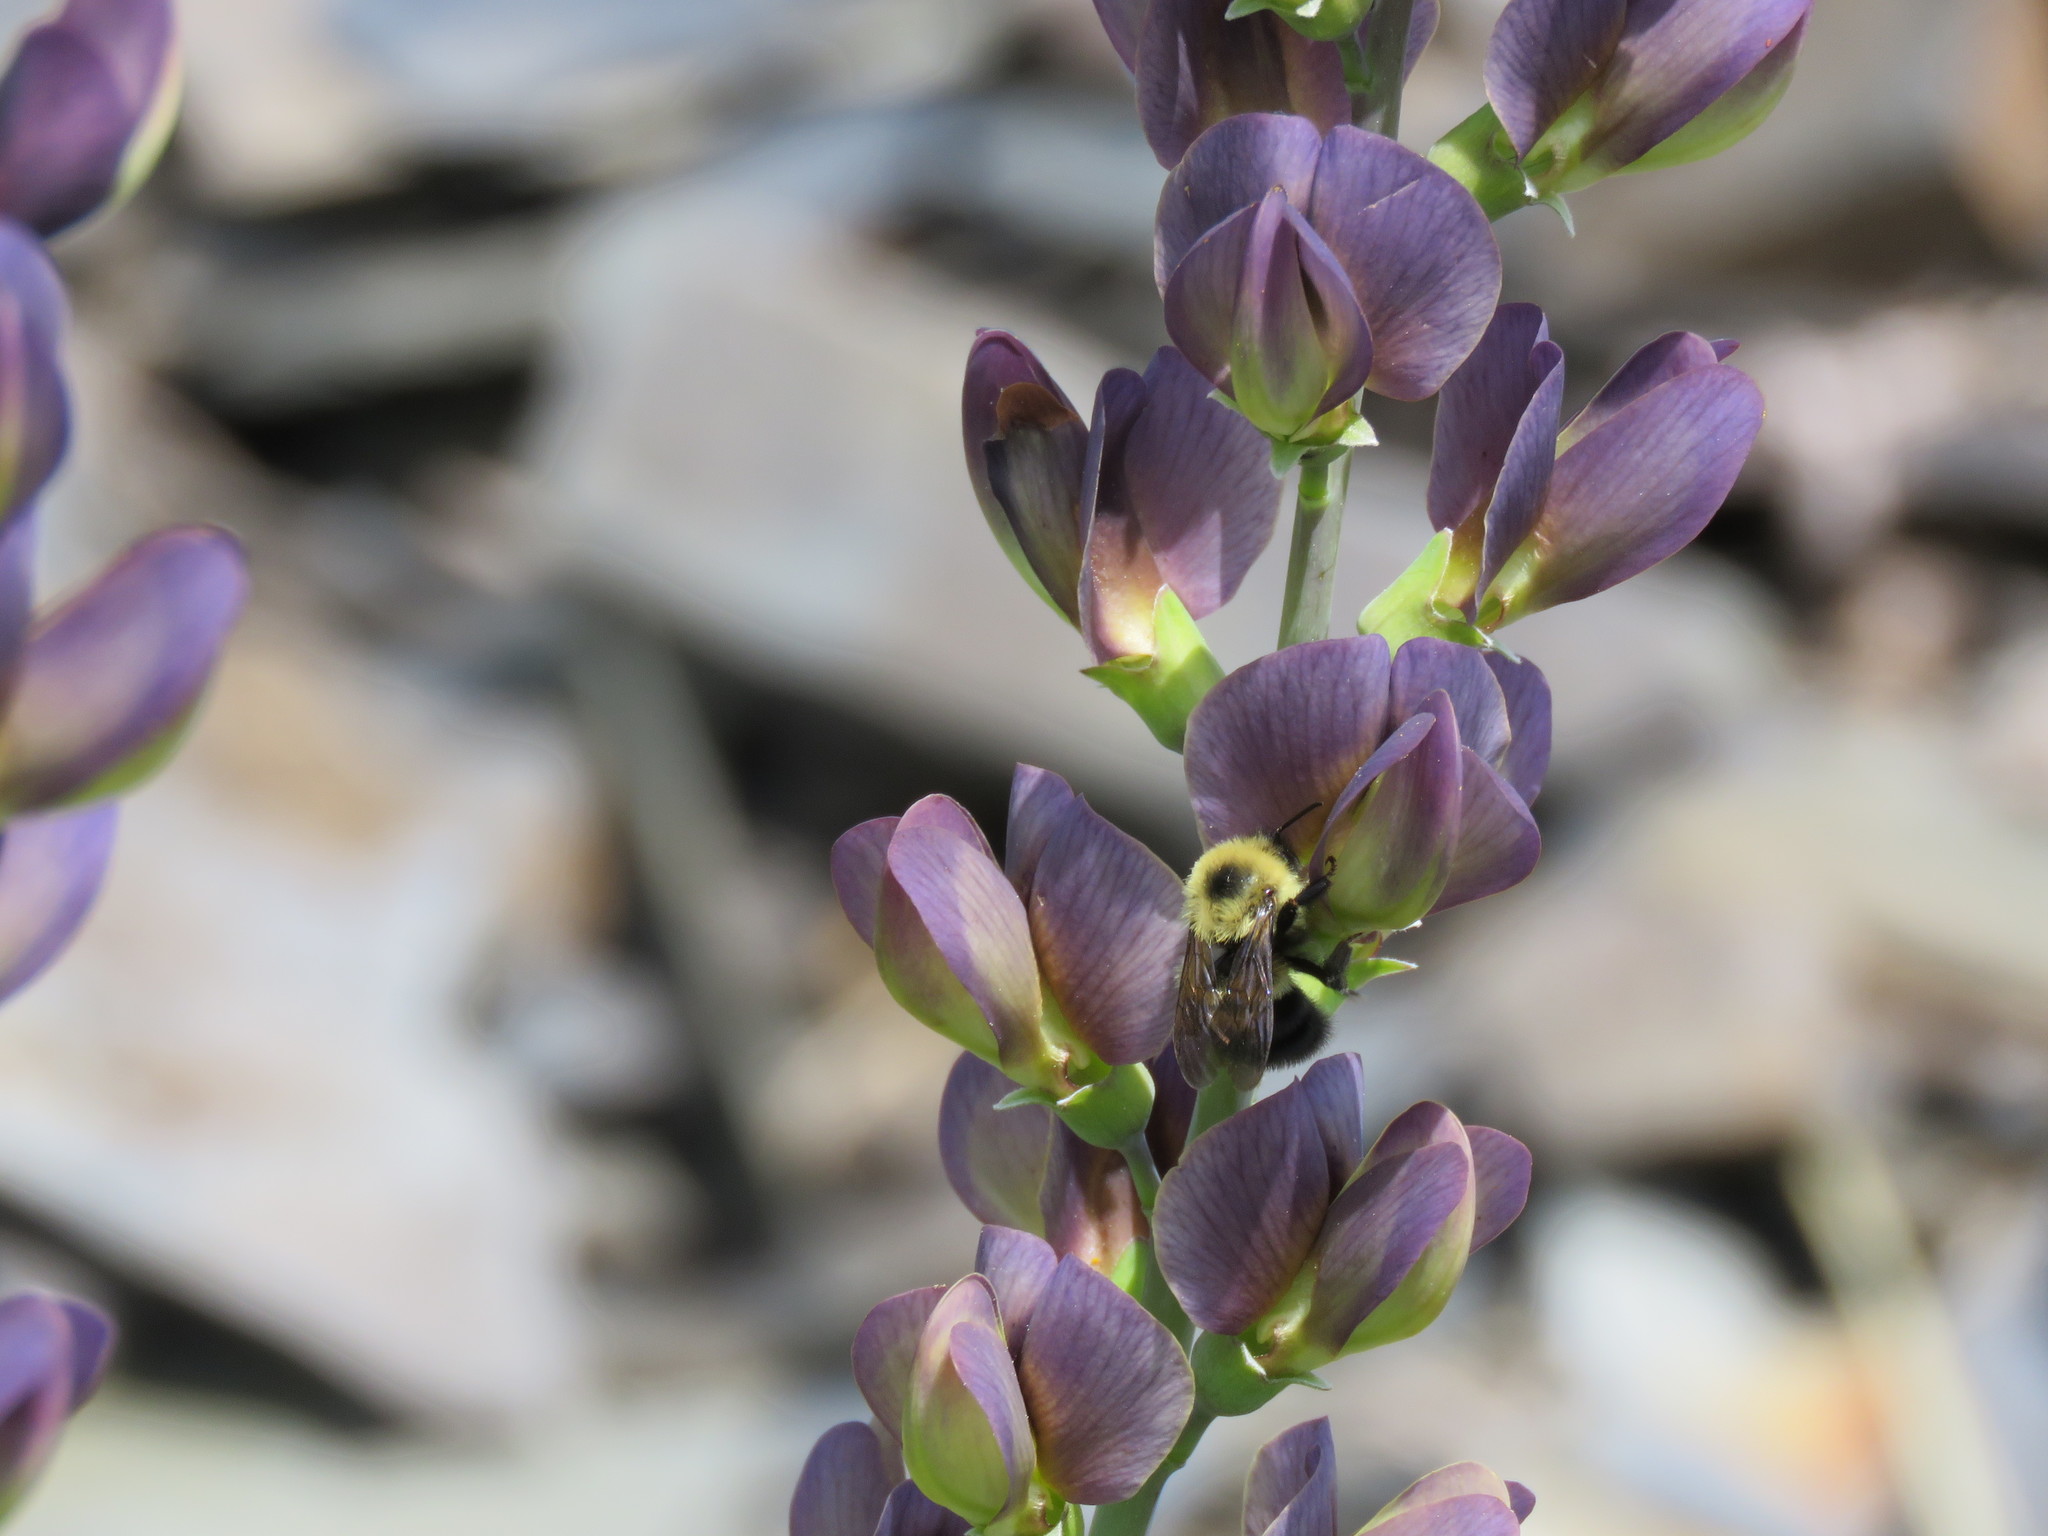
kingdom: Animalia
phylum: Arthropoda
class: Insecta
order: Hymenoptera
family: Apidae
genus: Bombus
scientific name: Bombus bimaculatus
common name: Two-spotted bumble bee
